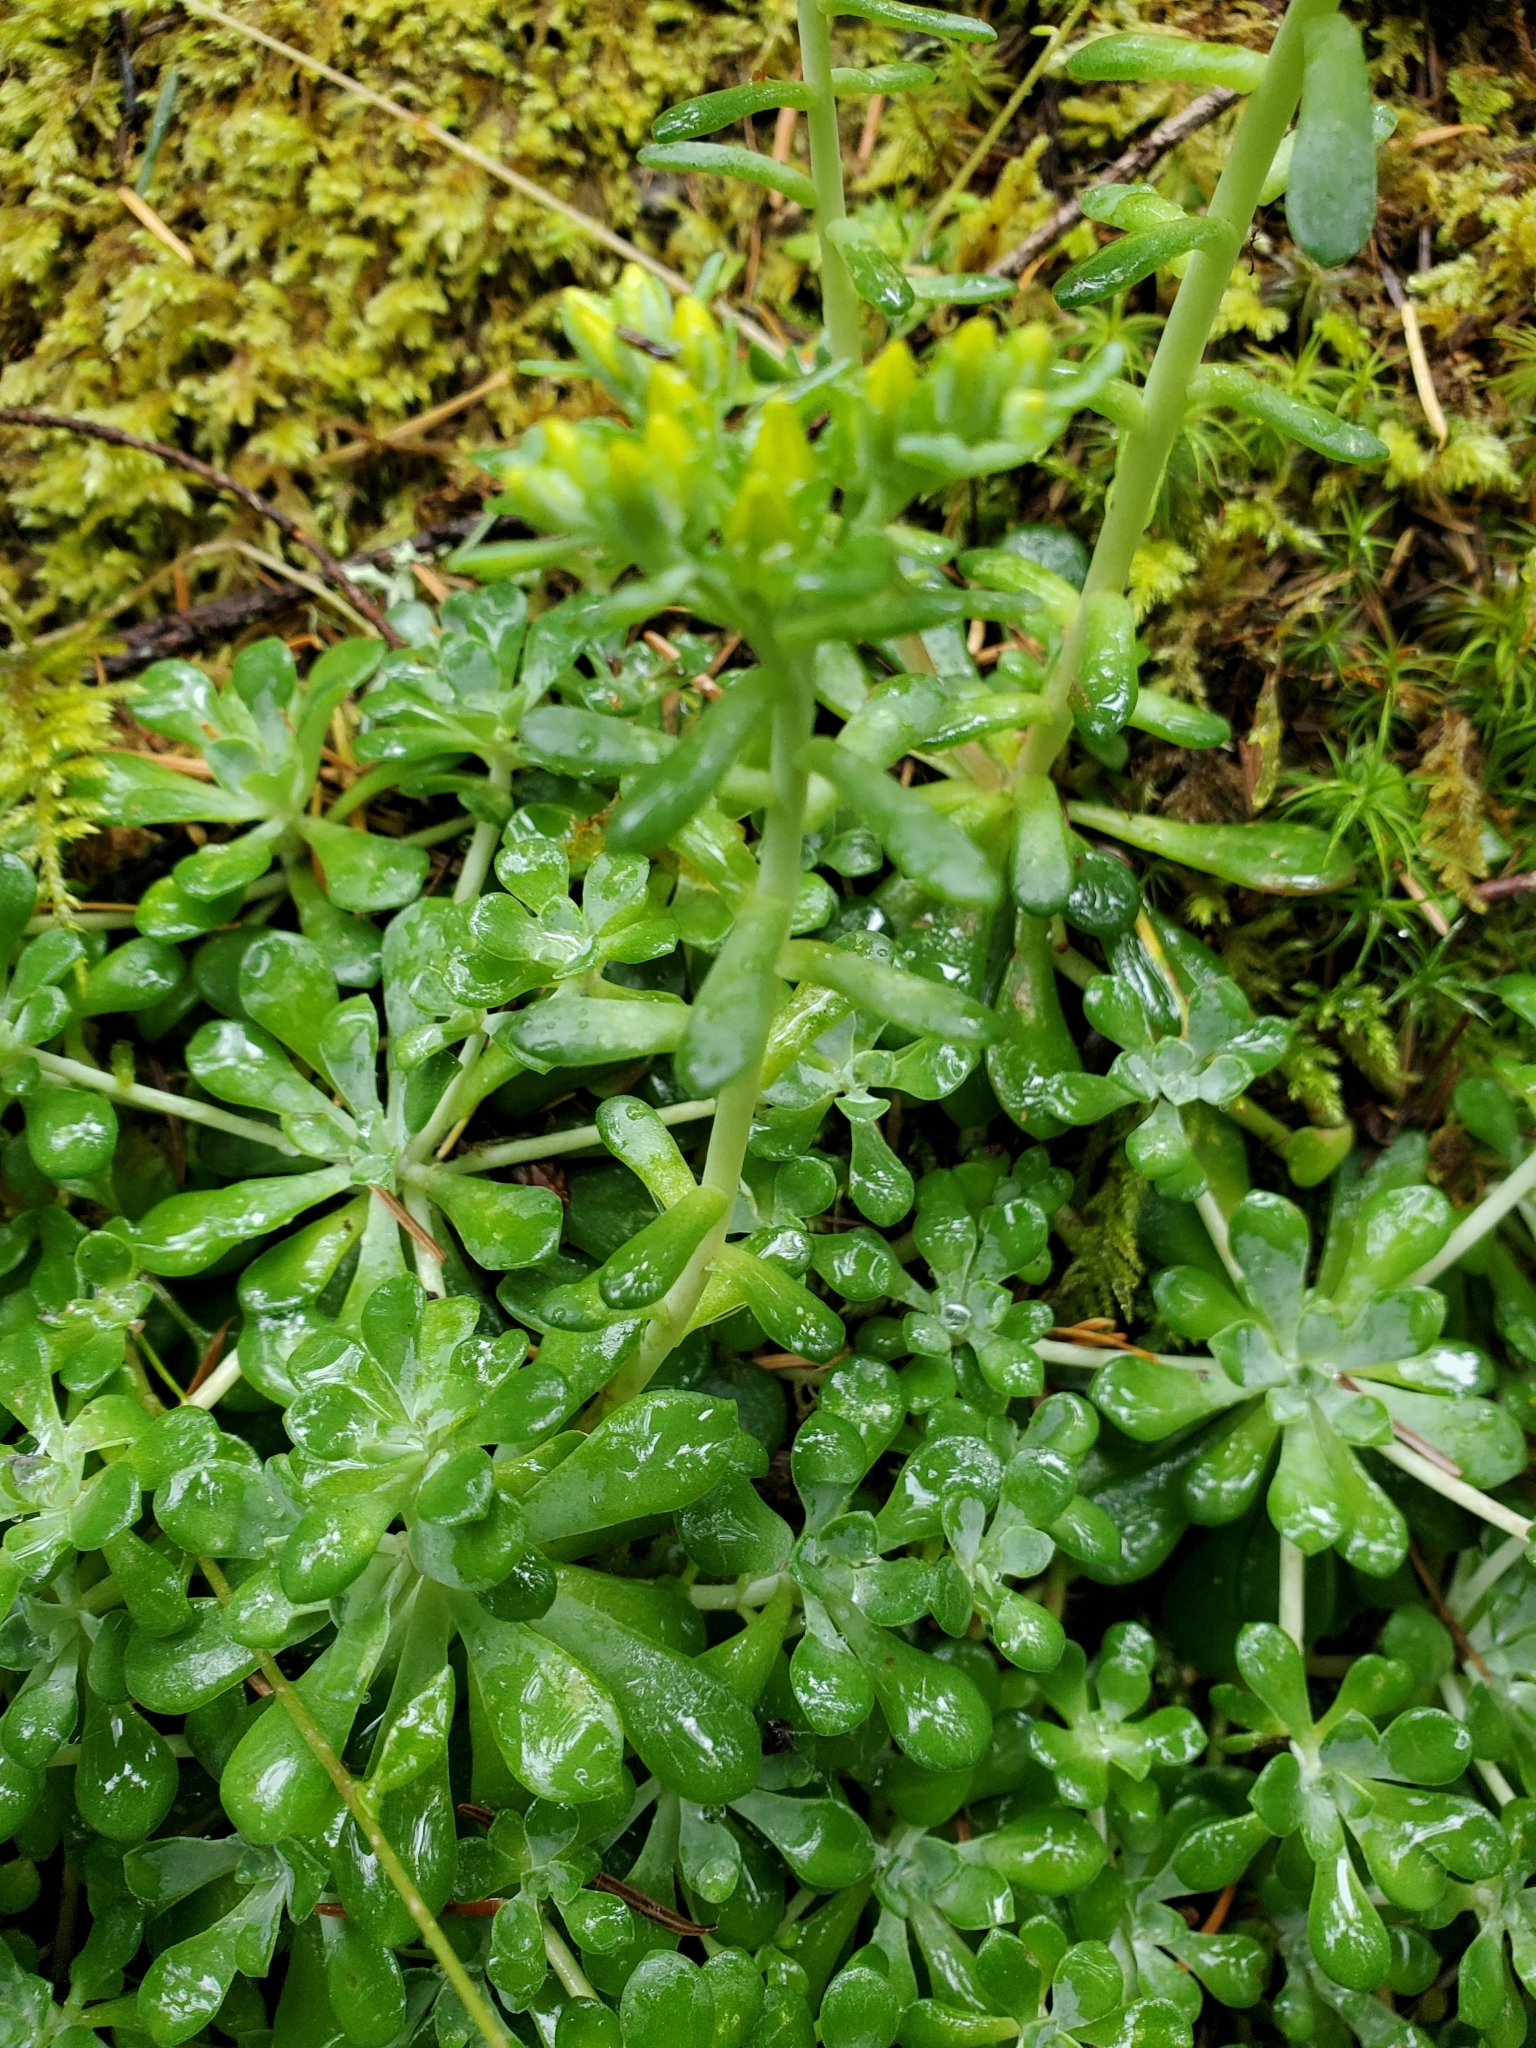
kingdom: Plantae
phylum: Tracheophyta
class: Magnoliopsida
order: Saxifragales
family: Crassulaceae
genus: Sedum
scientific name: Sedum spathulifolium
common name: Colorado stonecrop
